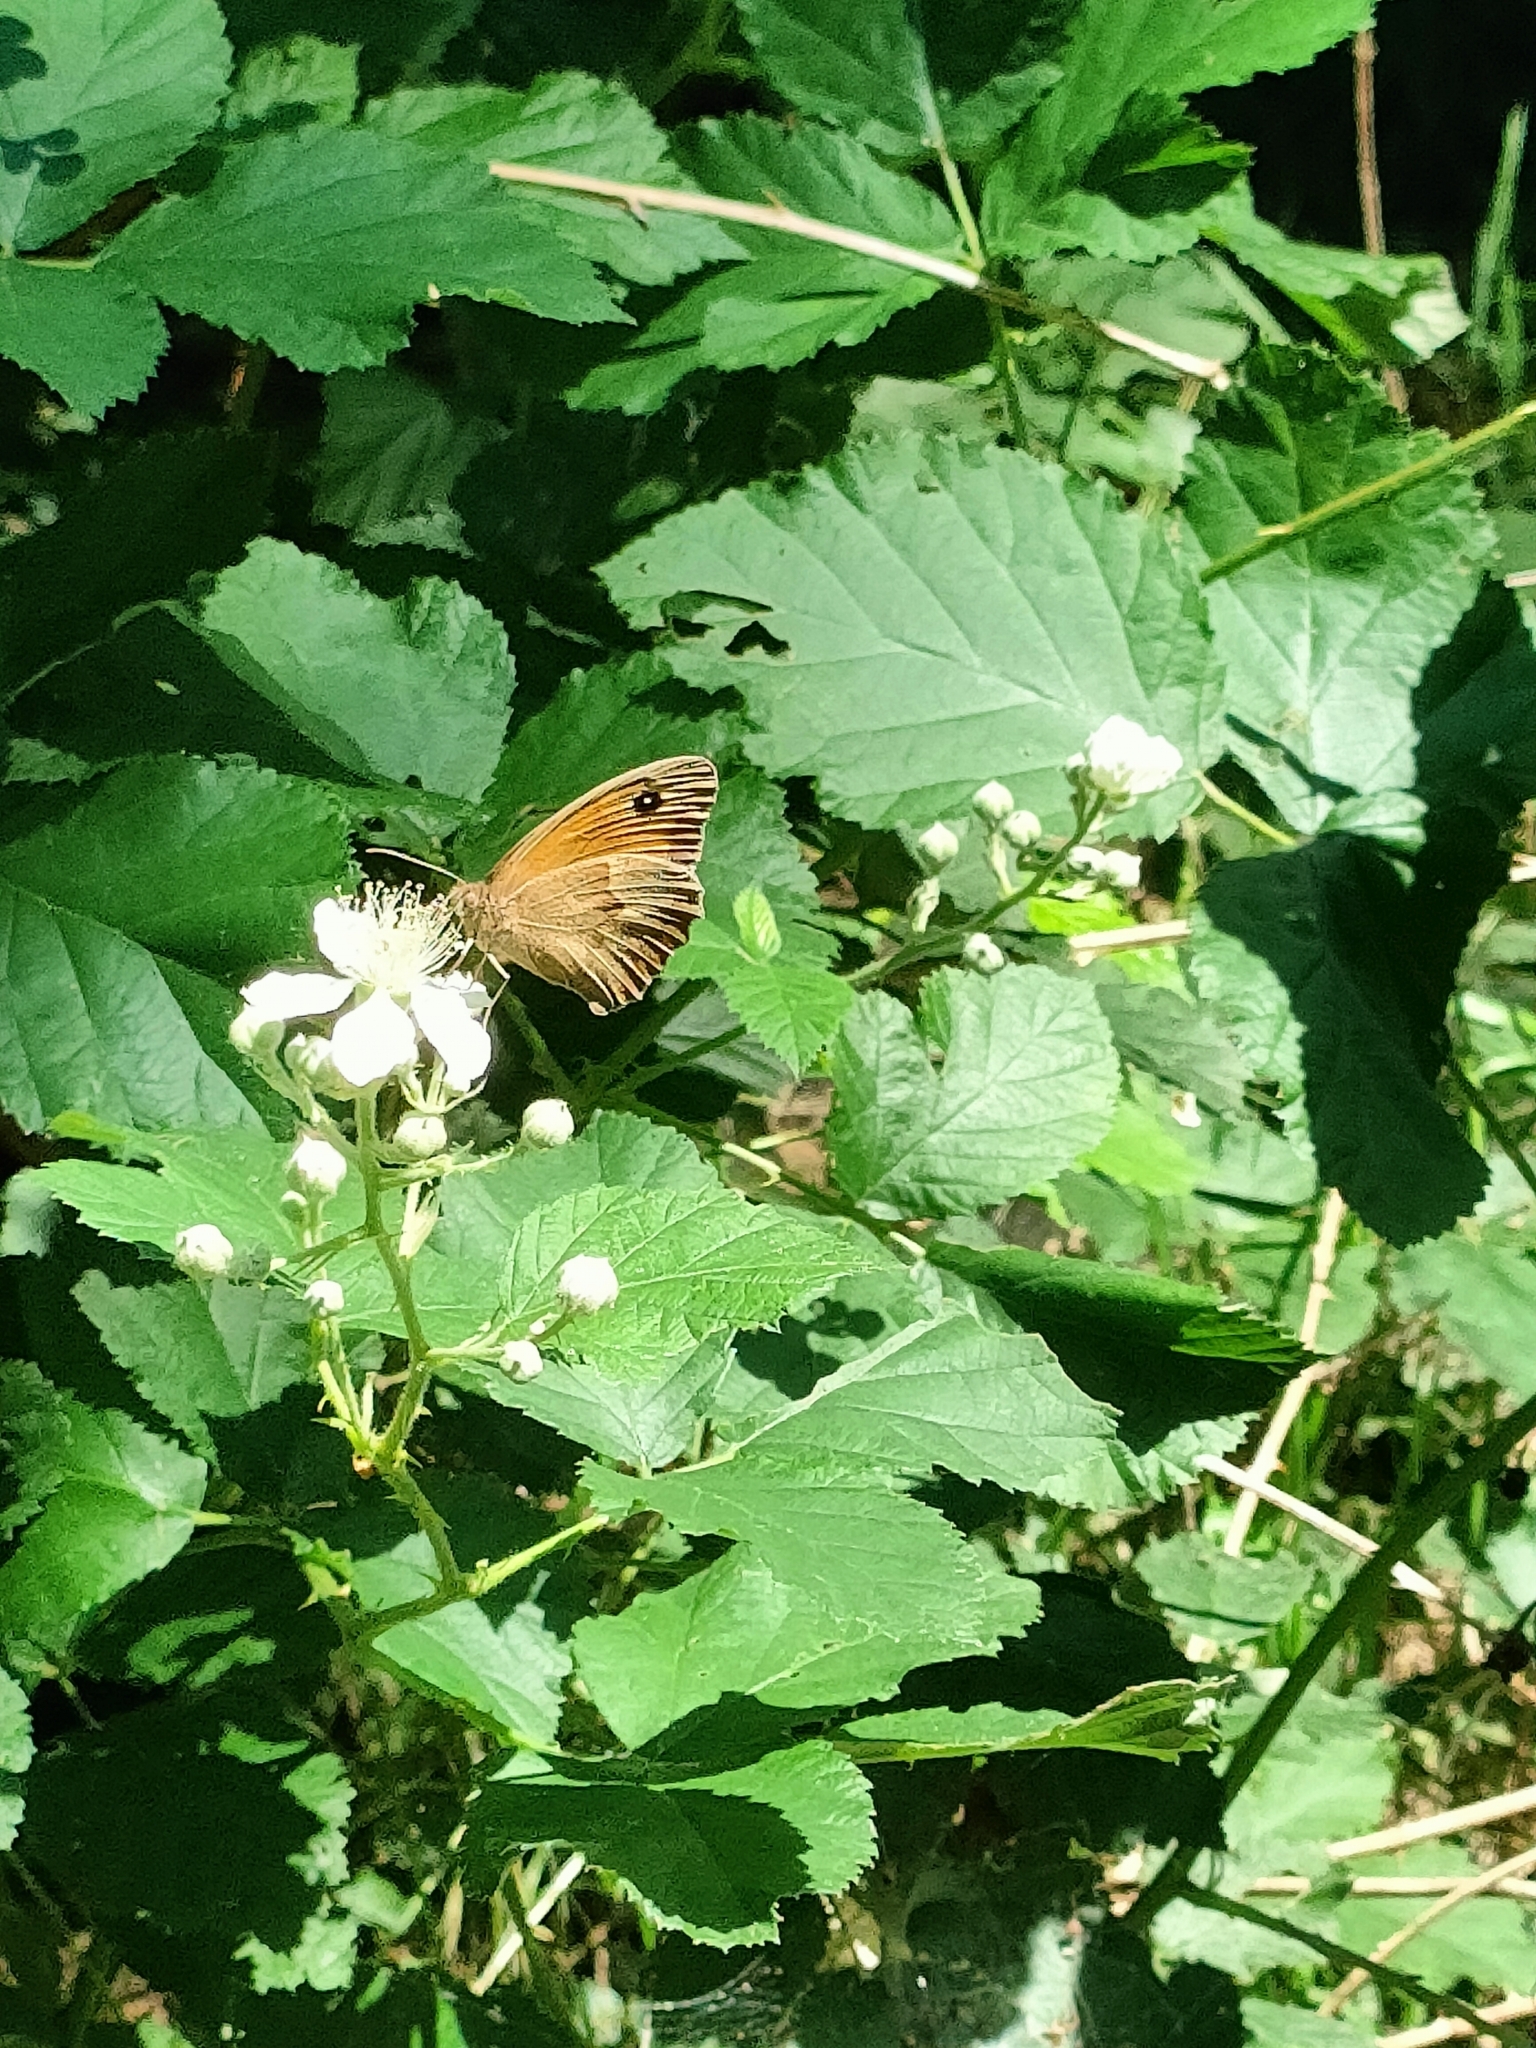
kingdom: Animalia
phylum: Arthropoda
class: Insecta
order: Lepidoptera
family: Nymphalidae
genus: Maniola
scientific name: Maniola jurtina
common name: Meadow brown
